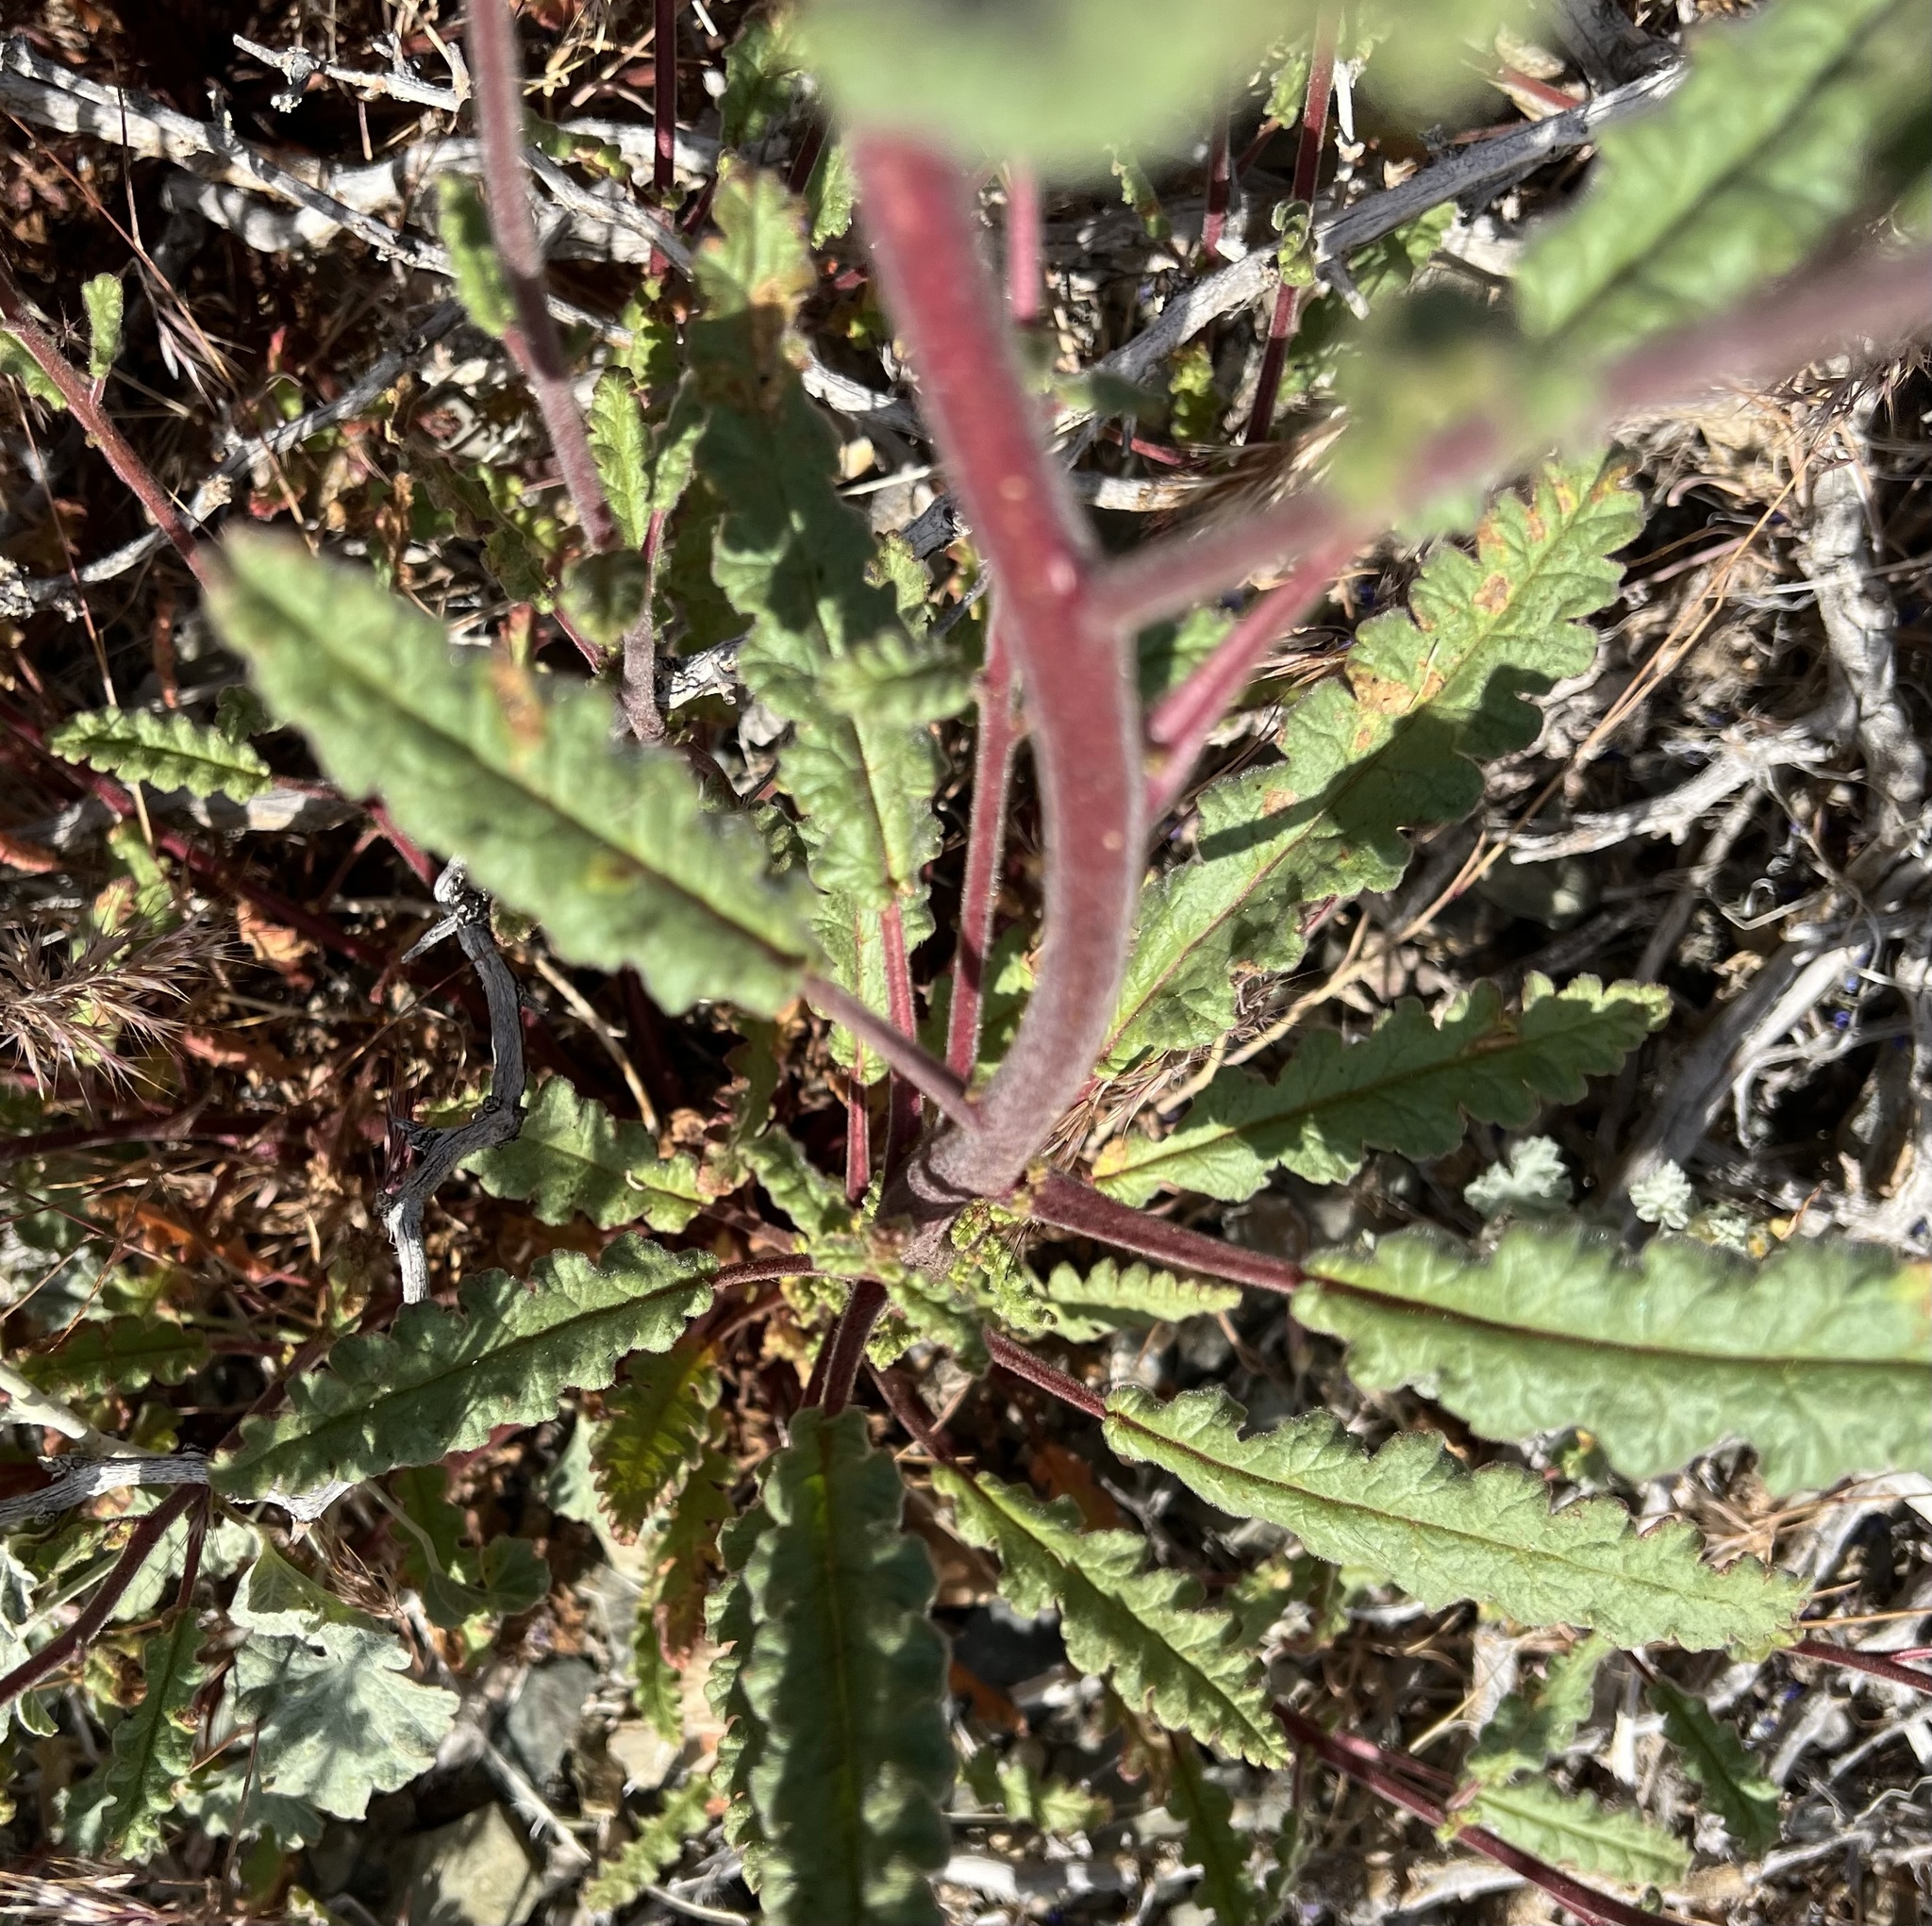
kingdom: Plantae
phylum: Tracheophyta
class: Magnoliopsida
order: Boraginales
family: Hydrophyllaceae
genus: Phacelia
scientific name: Phacelia crenulata
